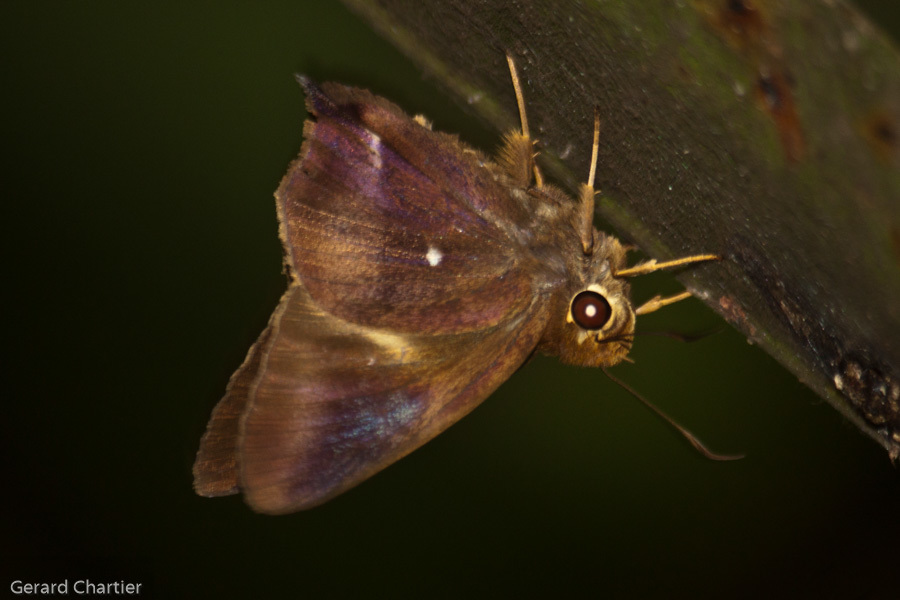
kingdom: Animalia
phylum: Arthropoda
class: Insecta
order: Lepidoptera
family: Hesperiidae
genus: Hasora
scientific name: Hasora badra
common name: Common awl
